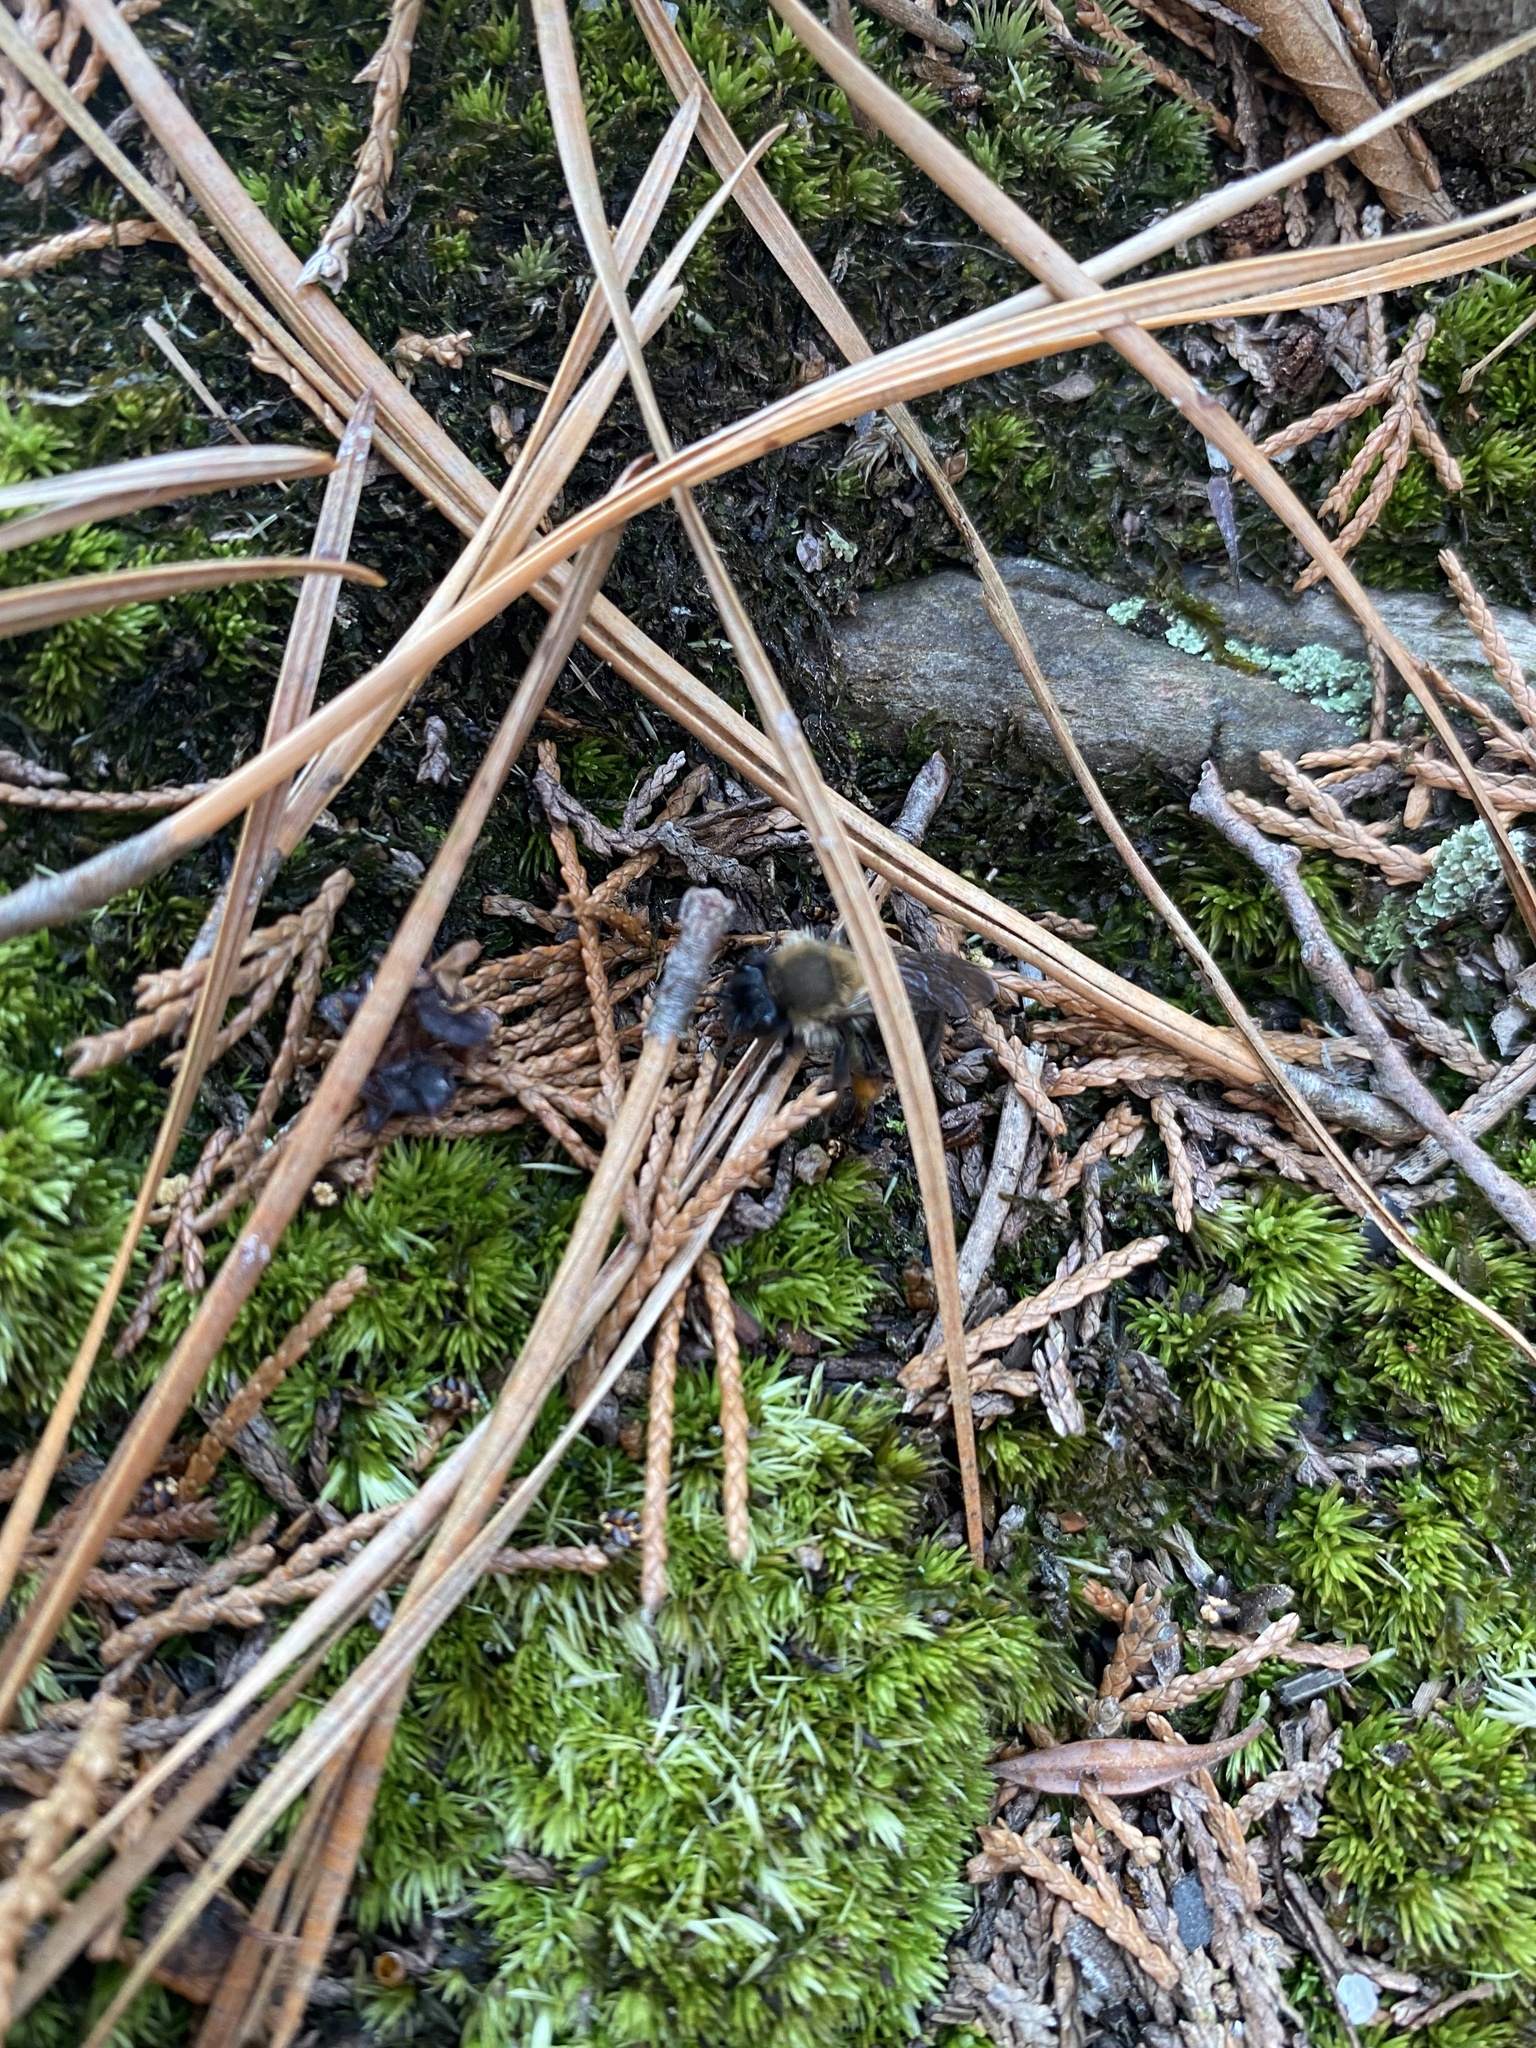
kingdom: Animalia
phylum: Arthropoda
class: Insecta
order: Hymenoptera
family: Andrenidae
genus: Andrena
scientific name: Andrena clarkella
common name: Clarke's mining bee
